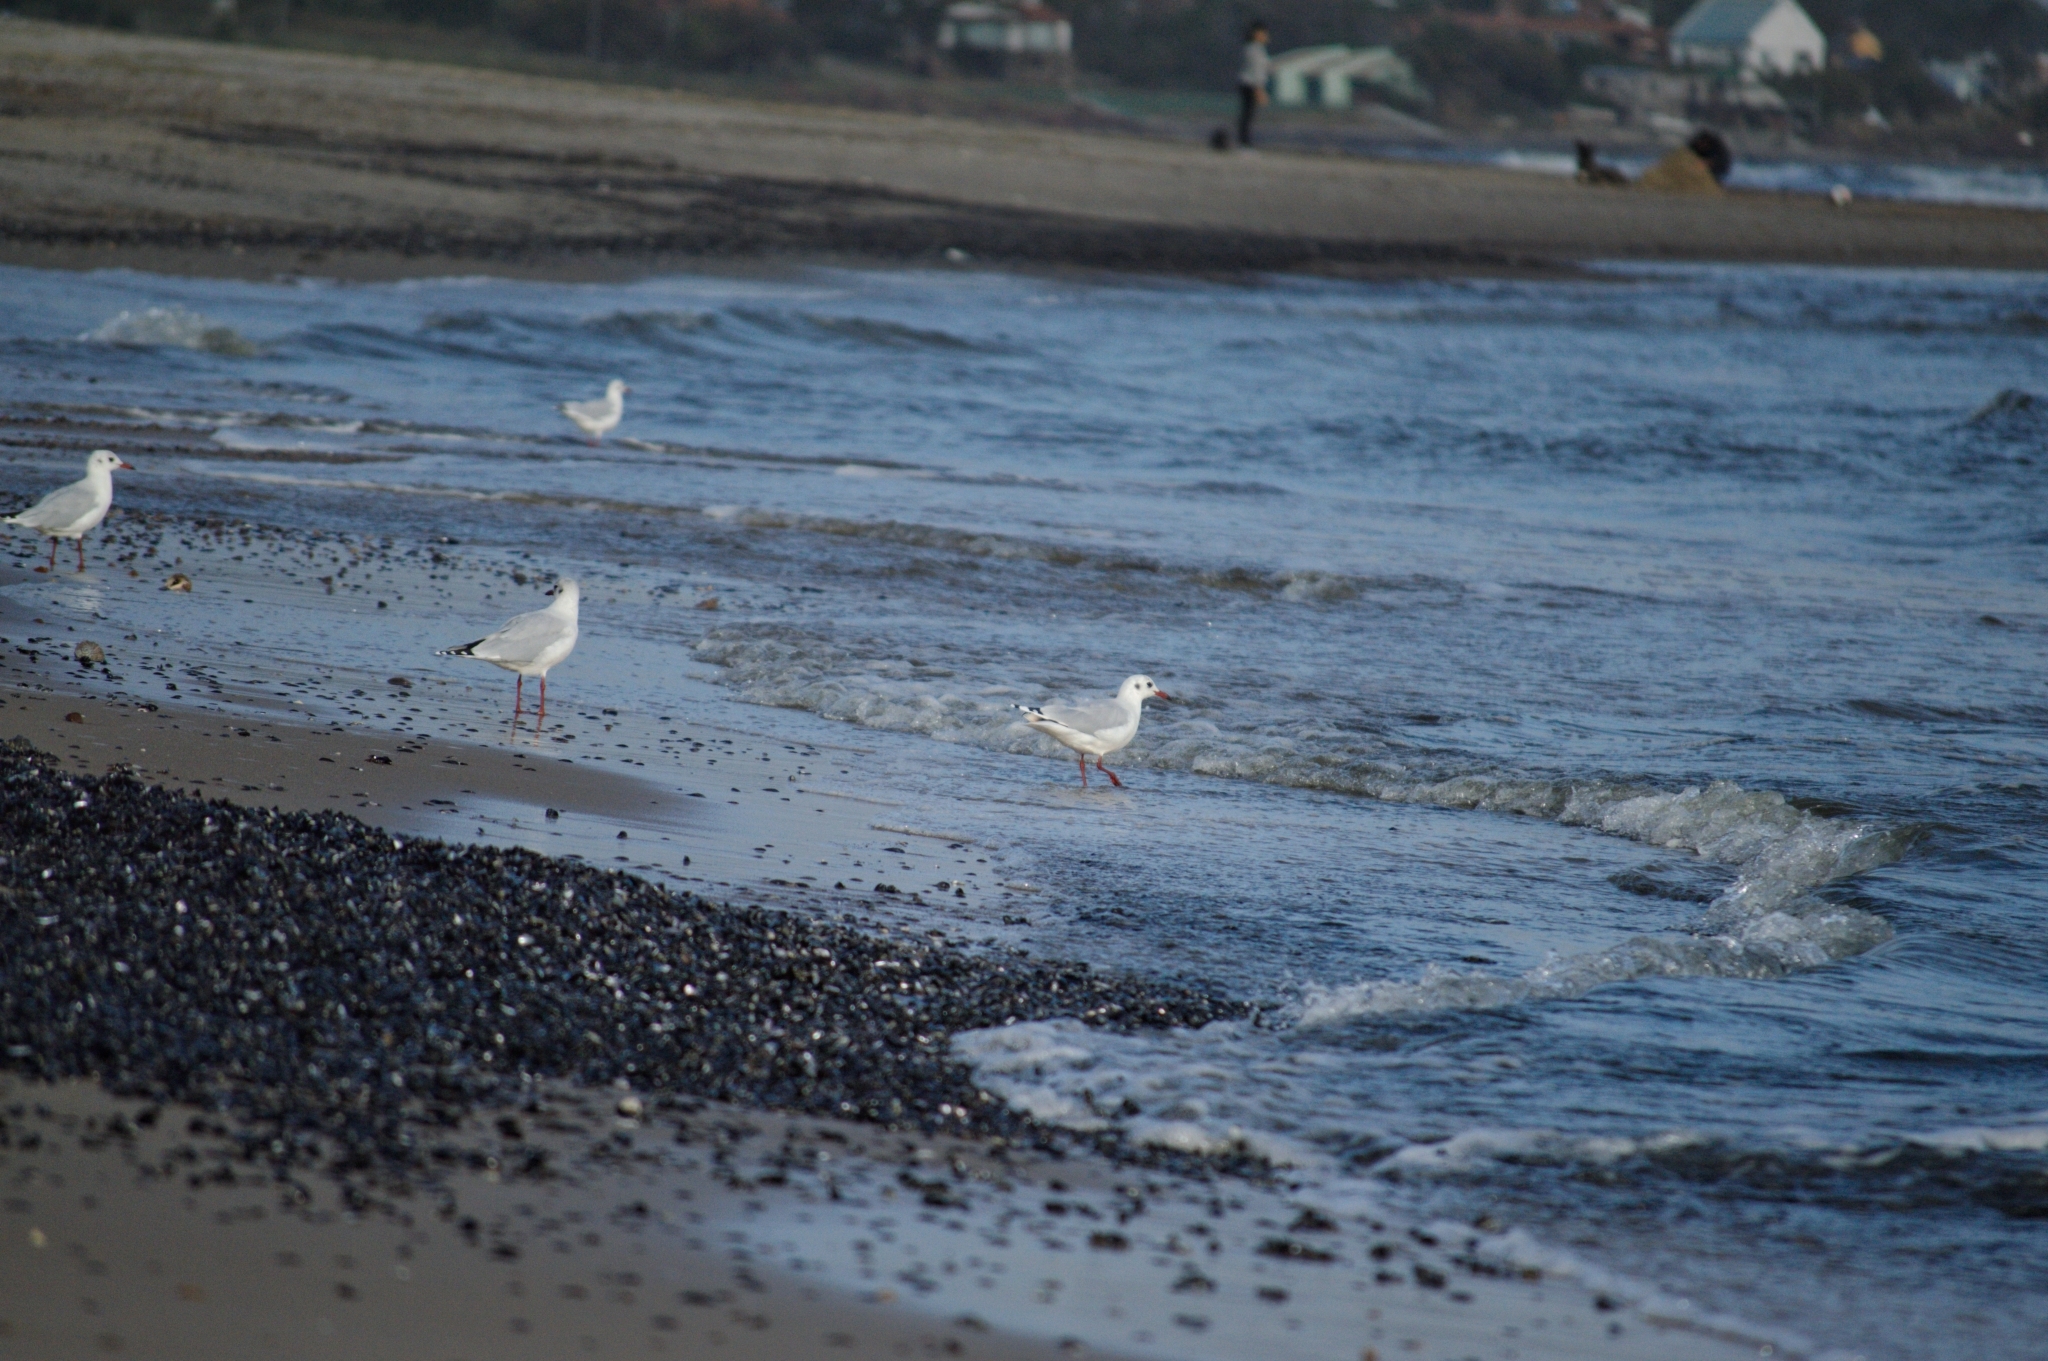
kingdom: Animalia
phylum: Chordata
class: Aves
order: Charadriiformes
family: Laridae
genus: Chroicocephalus
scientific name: Chroicocephalus maculipennis
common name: Brown-hooded gull
